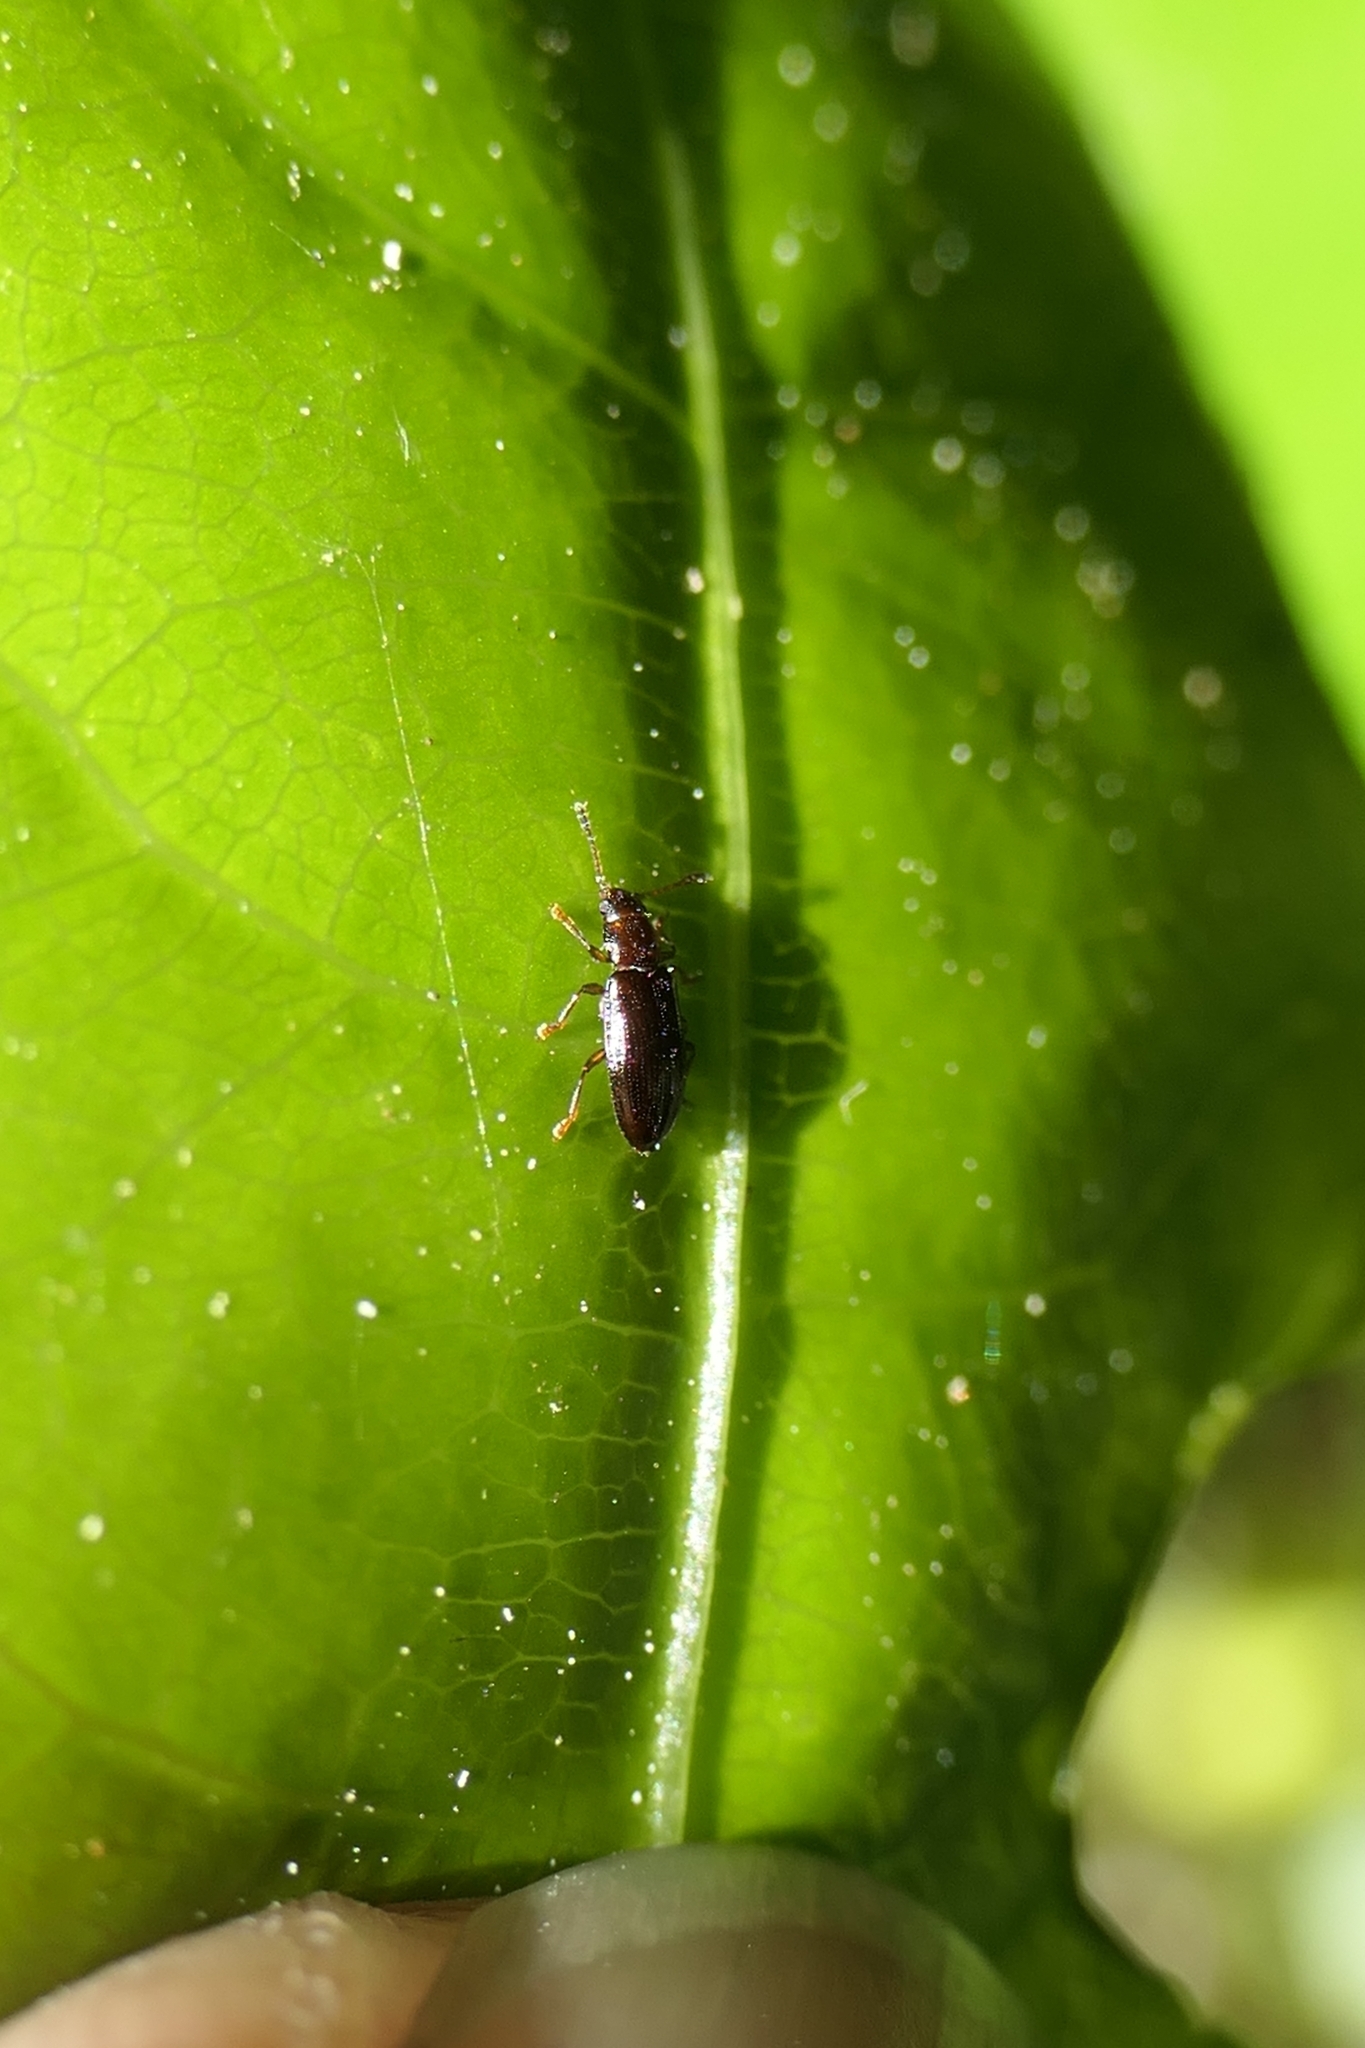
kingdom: Animalia
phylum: Arthropoda
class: Insecta
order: Coleoptera
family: Erotylidae
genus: Loberus
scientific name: Loberus depressus
